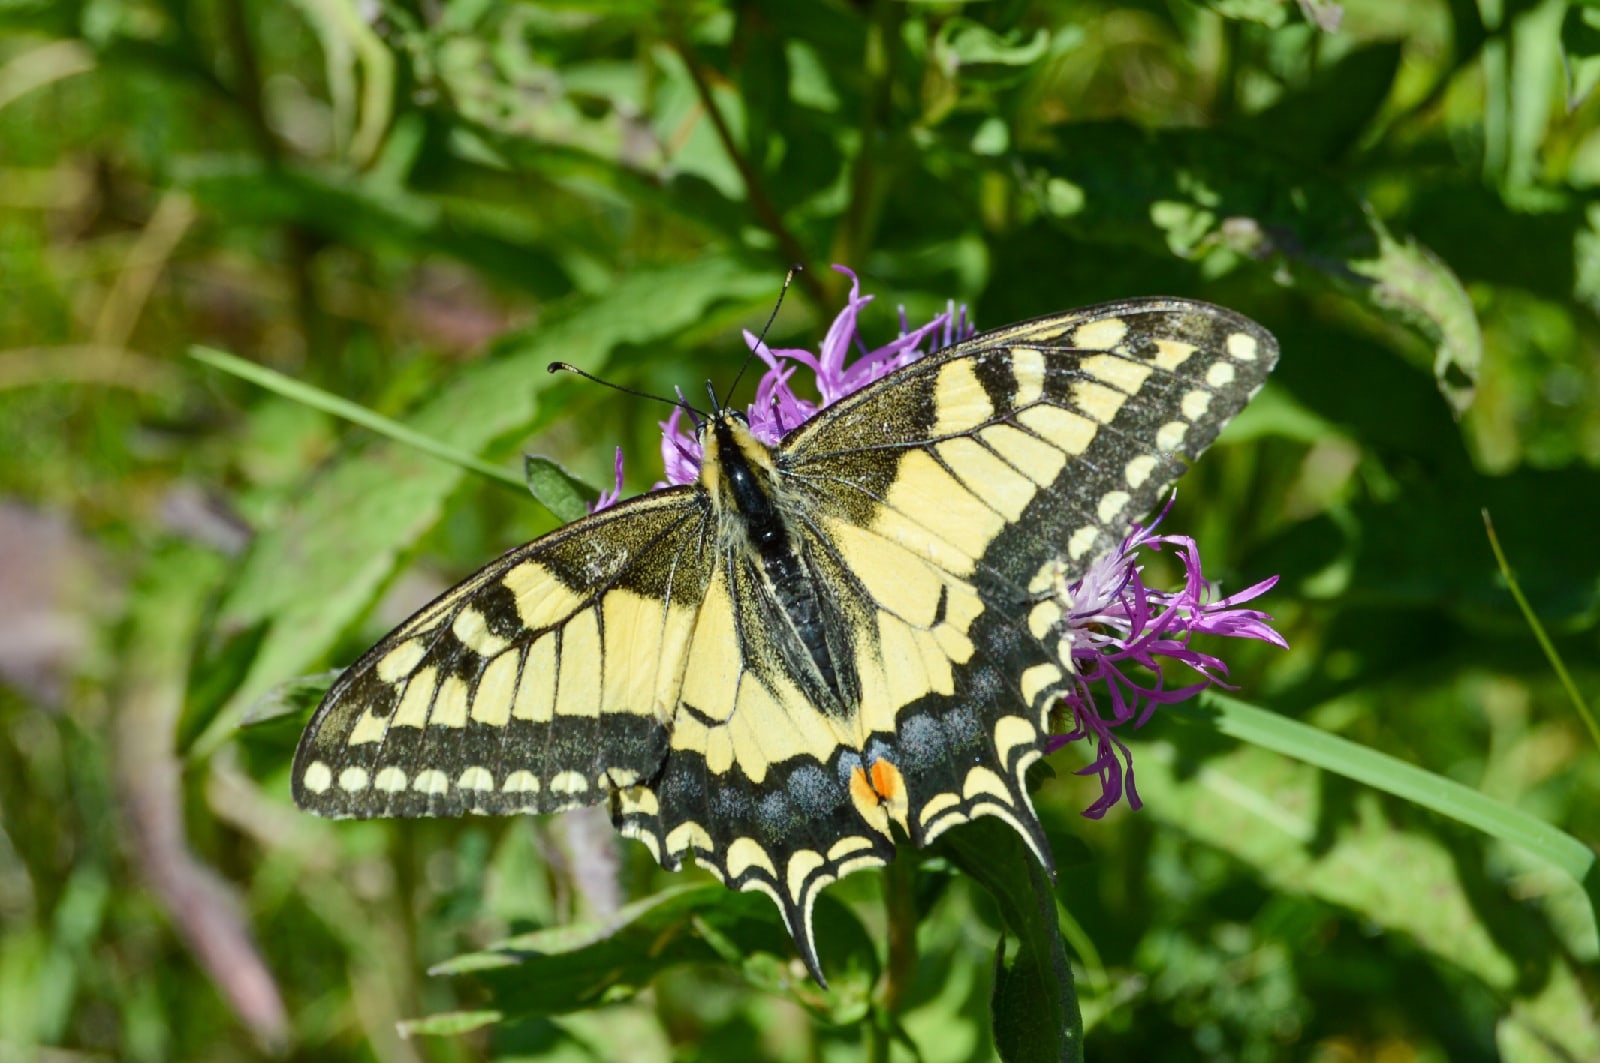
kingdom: Animalia
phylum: Arthropoda
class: Insecta
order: Lepidoptera
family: Papilionidae
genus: Papilio
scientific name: Papilio machaon
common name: Swallowtail
